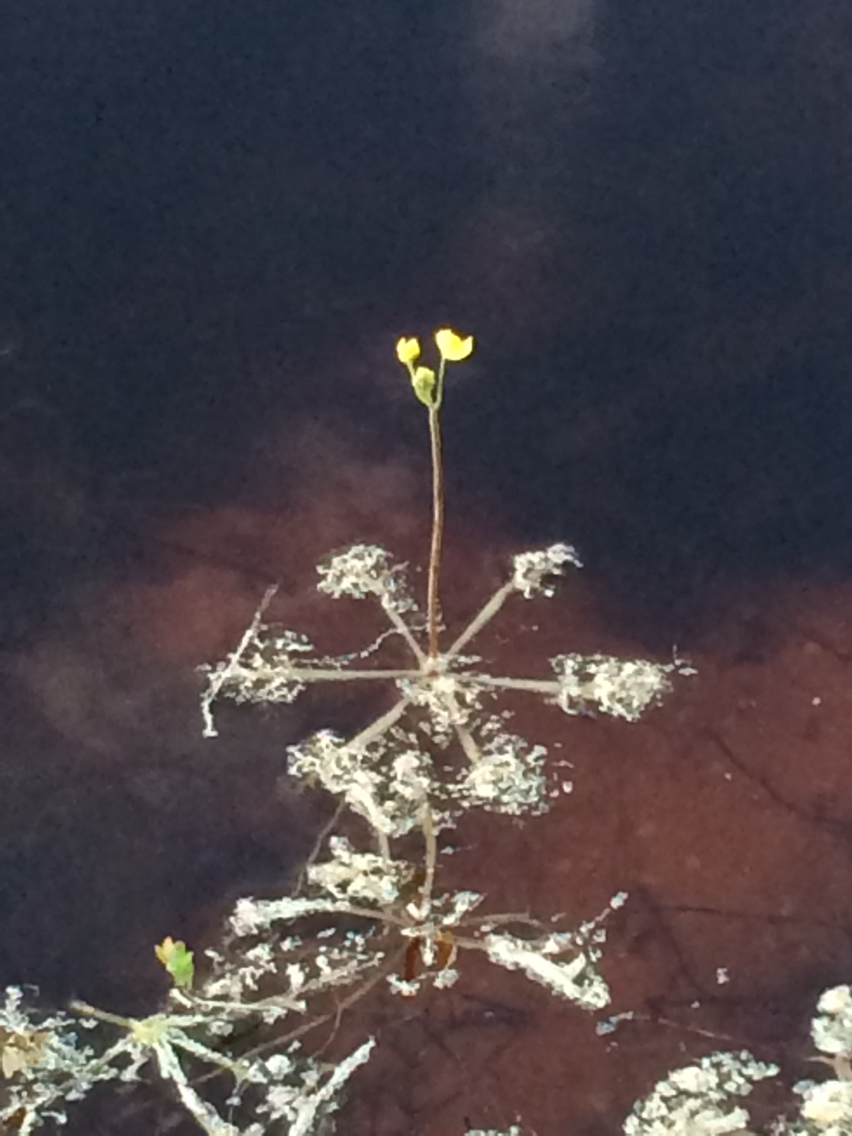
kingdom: Plantae
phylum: Tracheophyta
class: Magnoliopsida
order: Lamiales
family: Lentibulariaceae
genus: Utricularia
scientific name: Utricularia inflata
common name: Floating bladderwort
